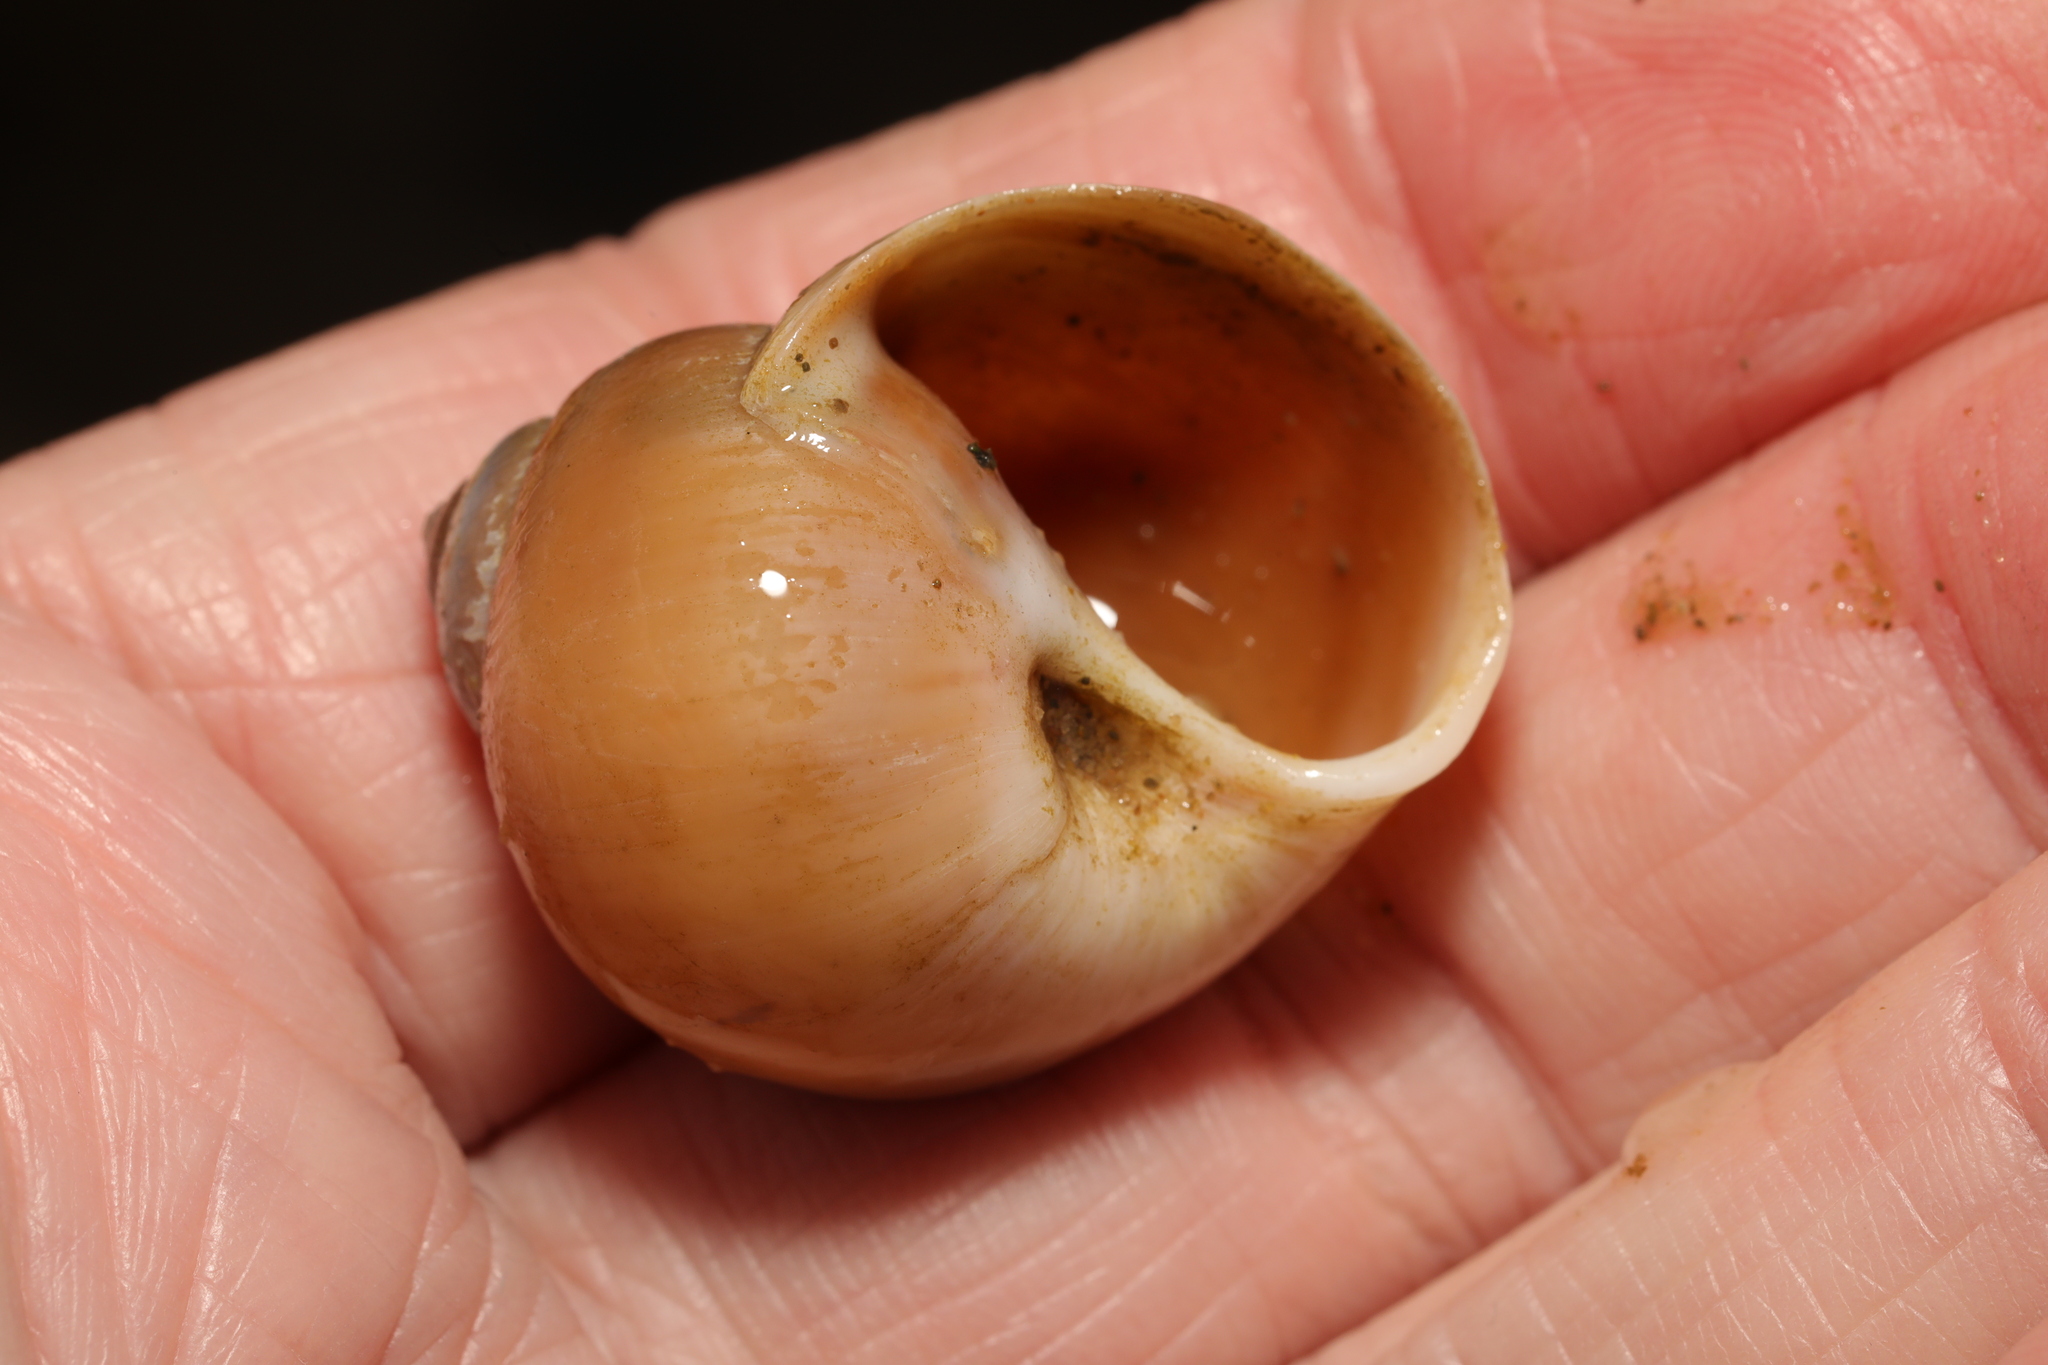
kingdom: Animalia
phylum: Mollusca
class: Gastropoda
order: Littorinimorpha
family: Naticidae
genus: Euspira
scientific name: Euspira catena
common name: Necklace shell
